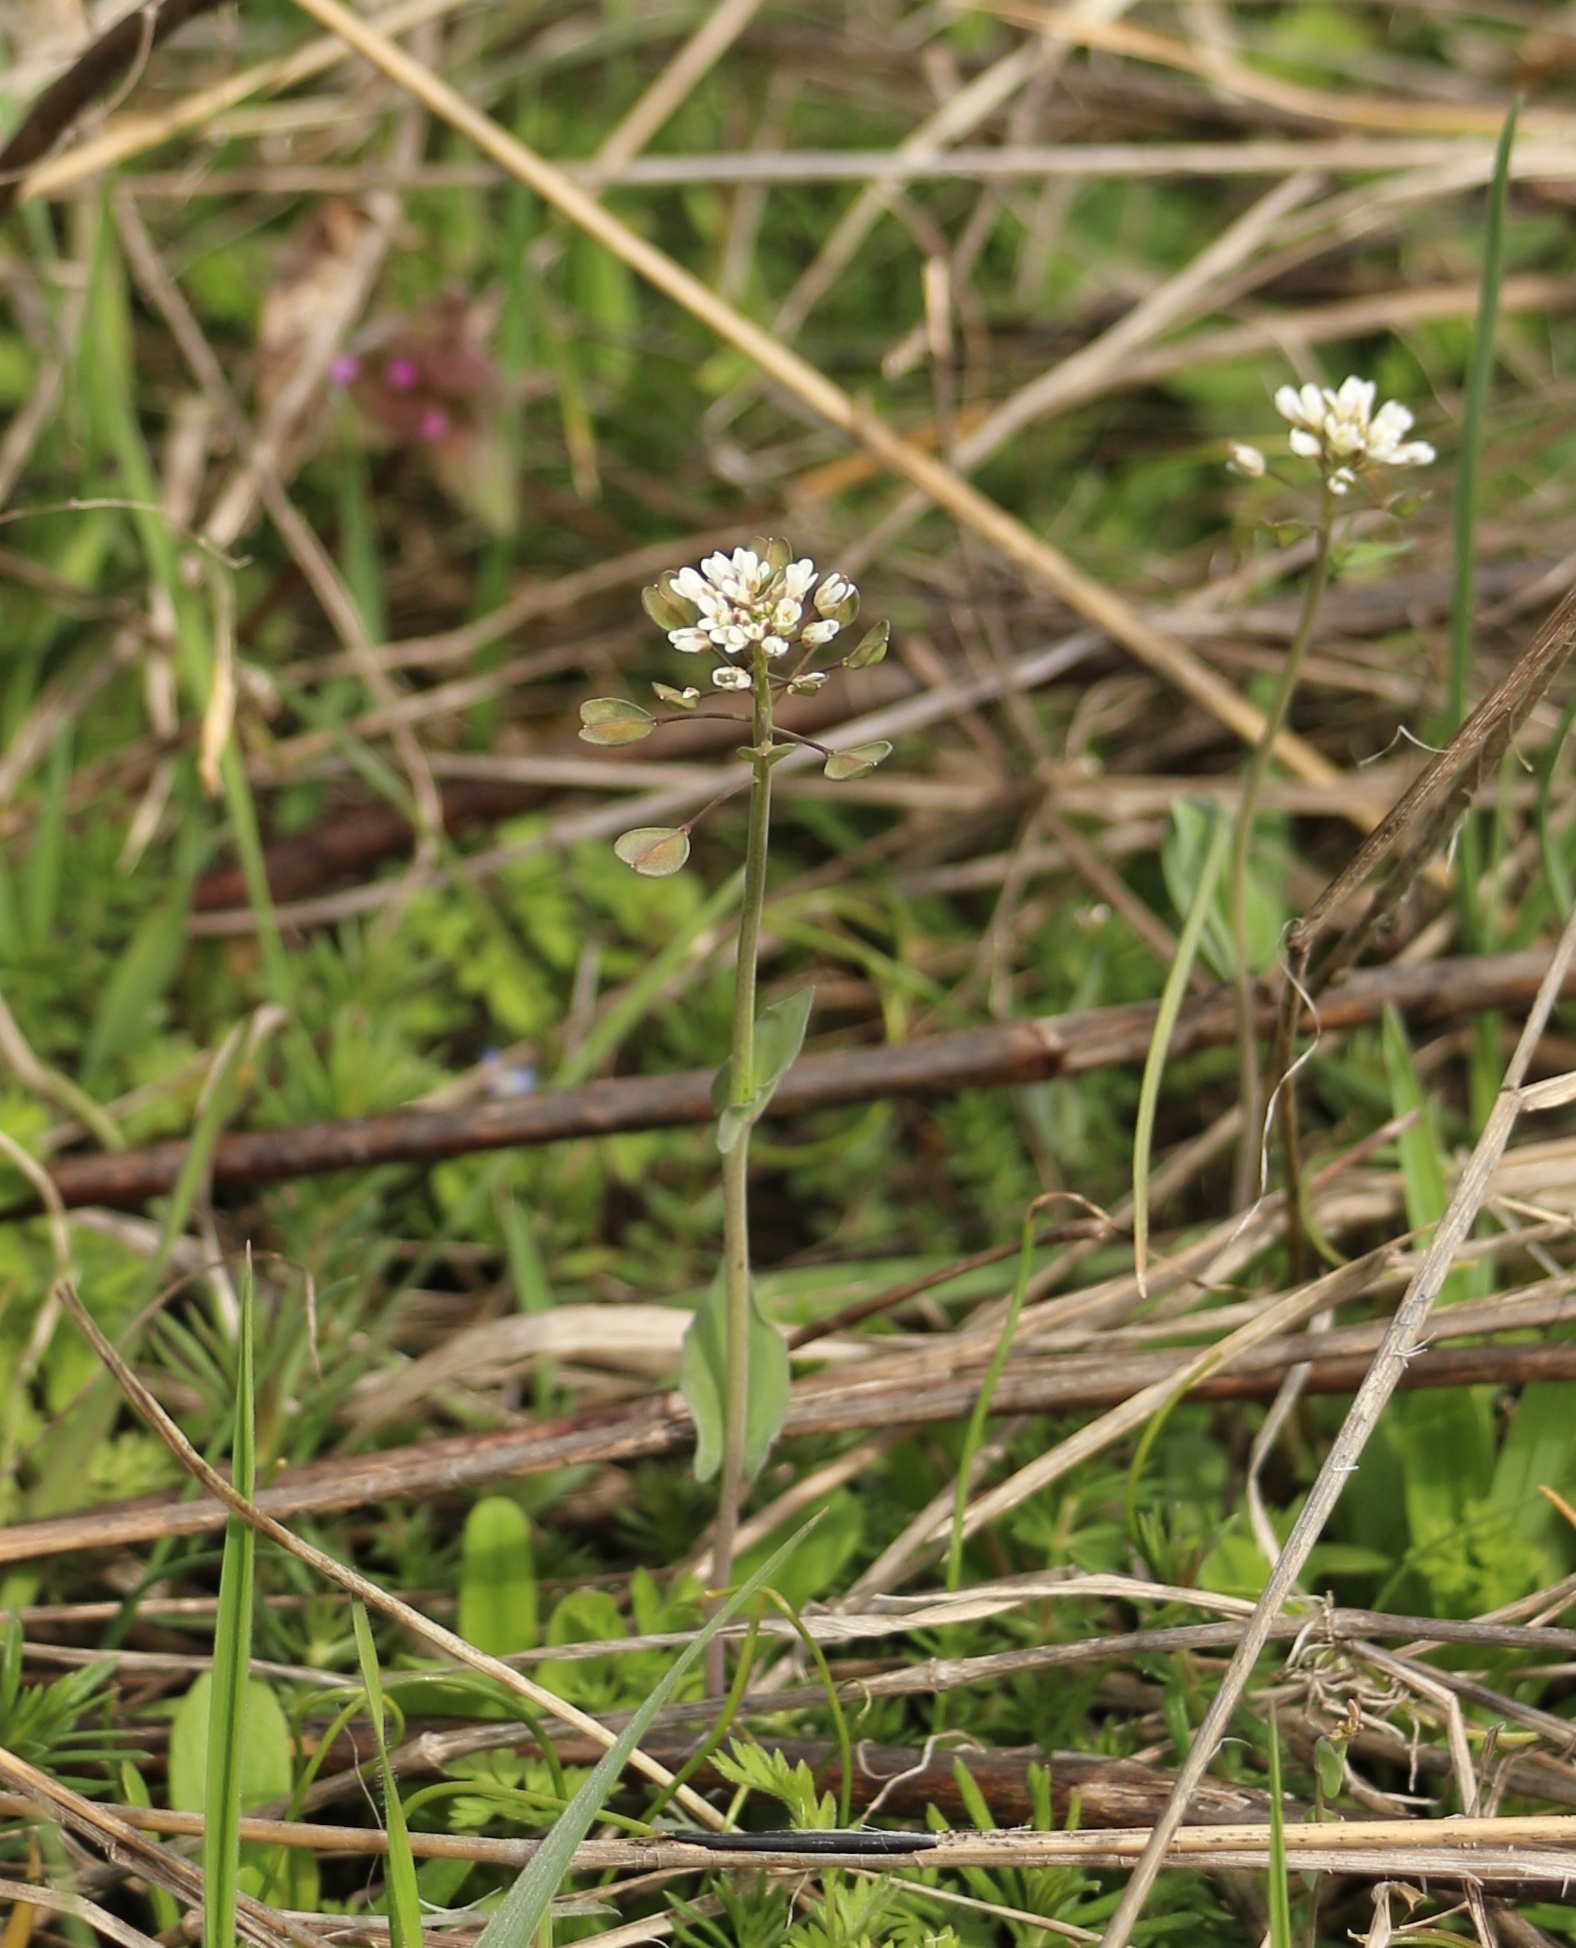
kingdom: Plantae
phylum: Tracheophyta
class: Magnoliopsida
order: Brassicales
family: Brassicaceae
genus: Noccaea
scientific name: Noccaea perfoliata
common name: Perfoliate pennycress
